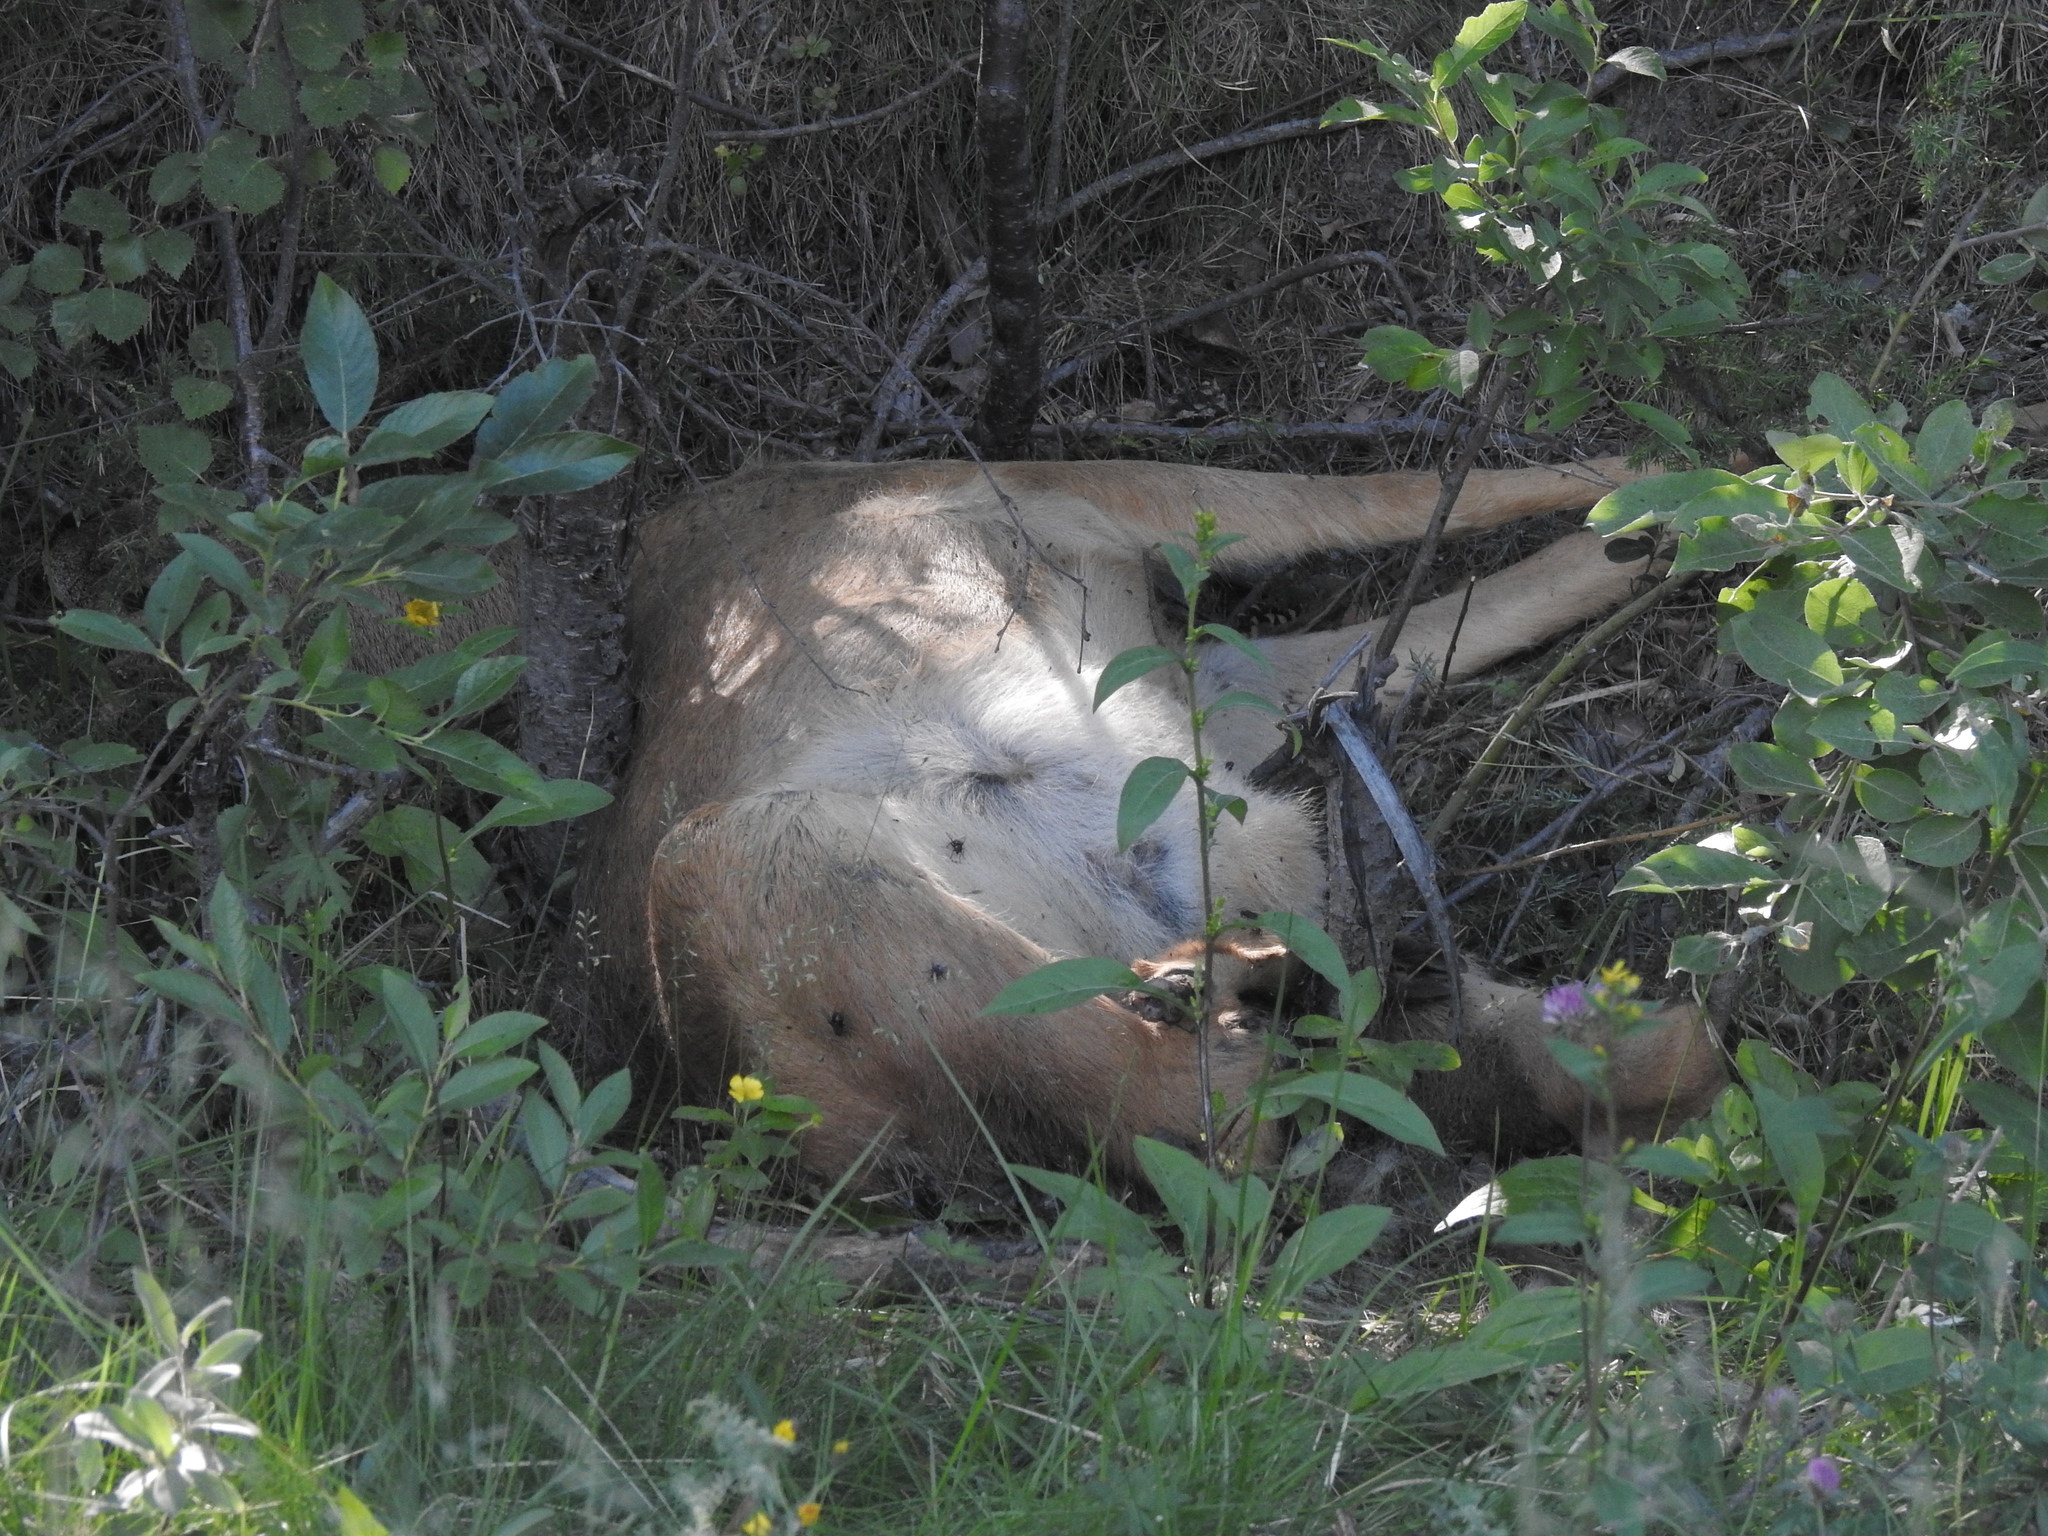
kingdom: Animalia
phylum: Chordata
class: Mammalia
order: Artiodactyla
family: Cervidae
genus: Capreolus
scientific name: Capreolus capreolus
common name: Western roe deer
